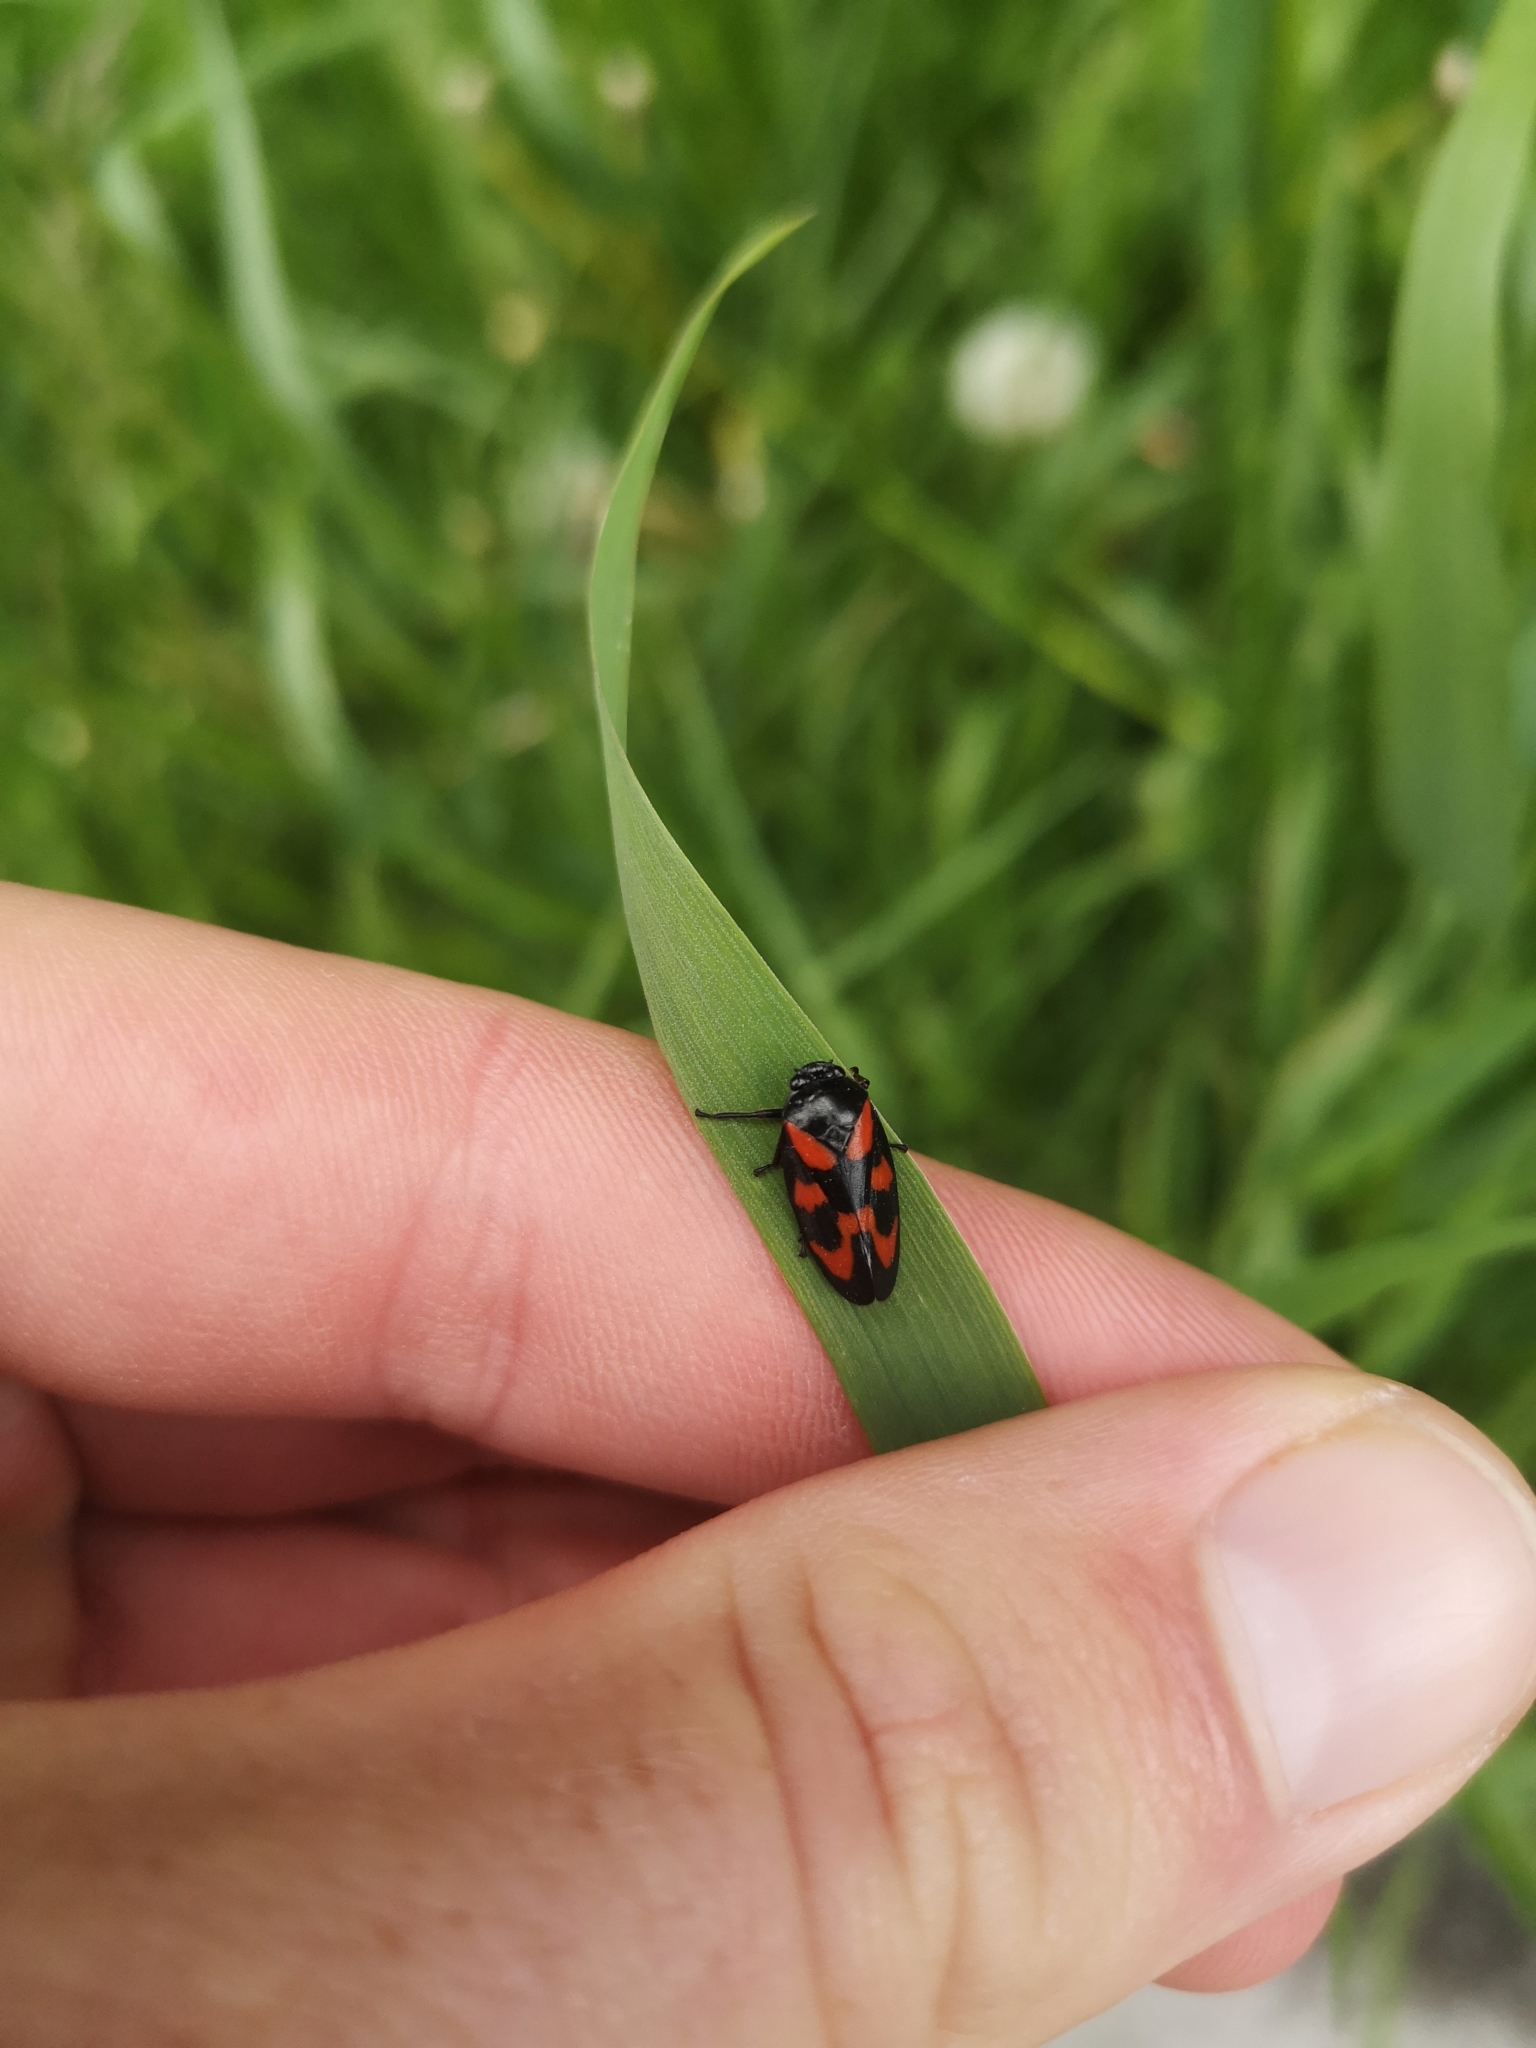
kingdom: Animalia
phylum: Arthropoda
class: Insecta
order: Hemiptera
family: Cercopidae
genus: Cercopis
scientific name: Cercopis vulnerata
